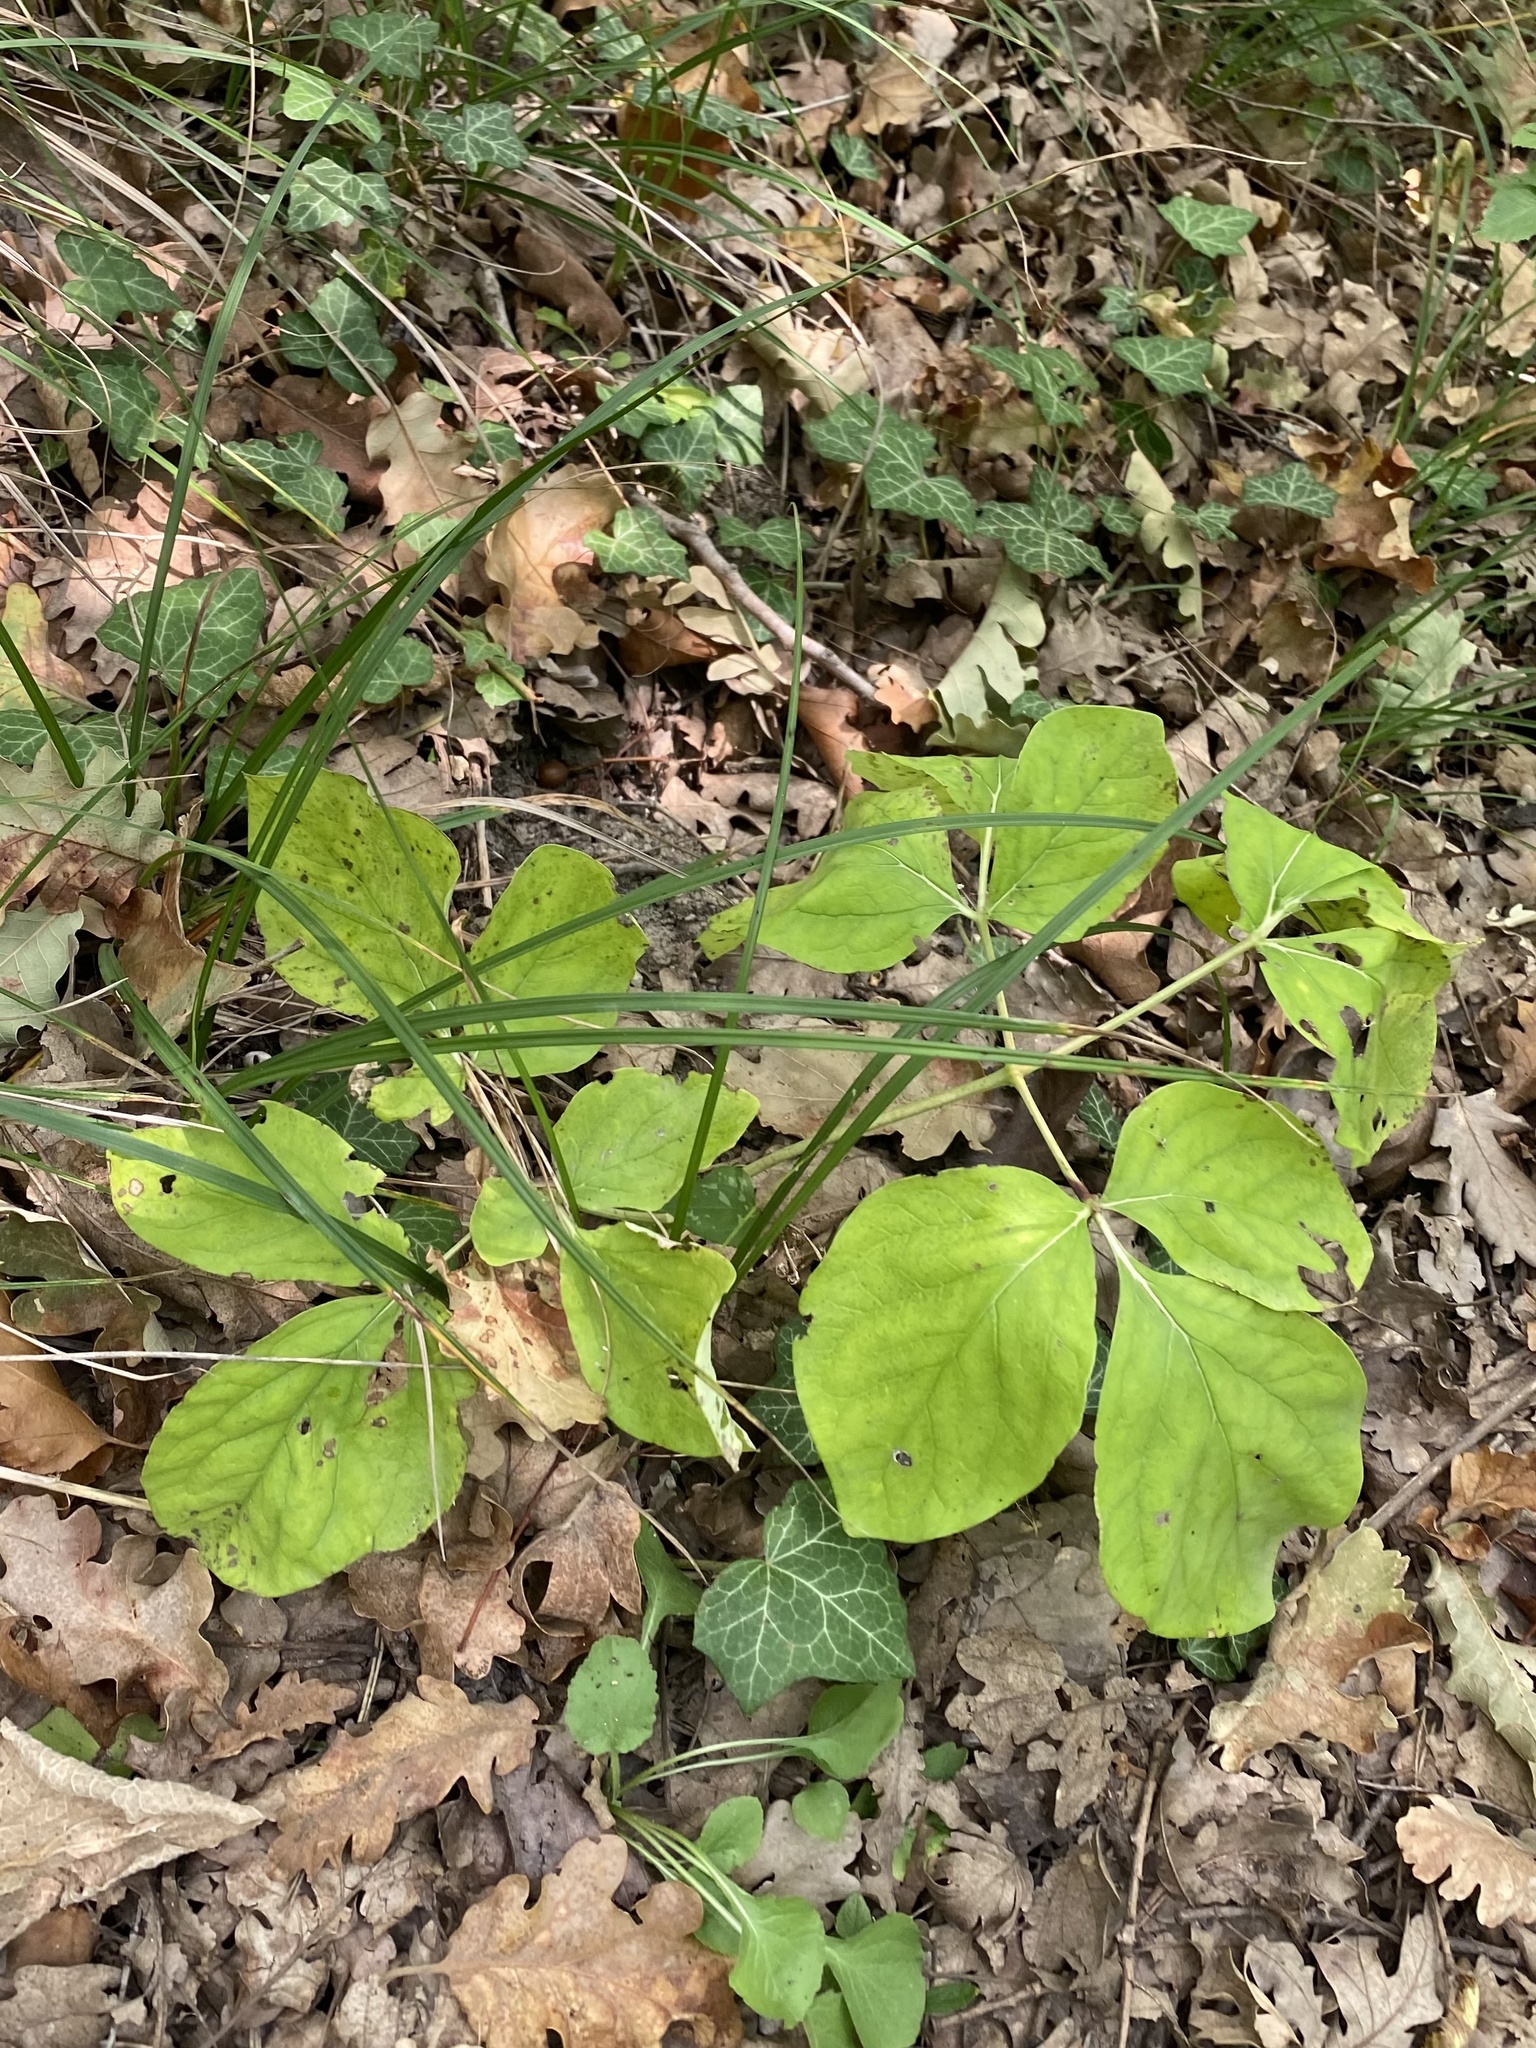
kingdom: Plantae
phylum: Tracheophyta
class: Magnoliopsida
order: Saxifragales
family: Paeoniaceae
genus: Paeonia
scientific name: Paeonia caucasica
